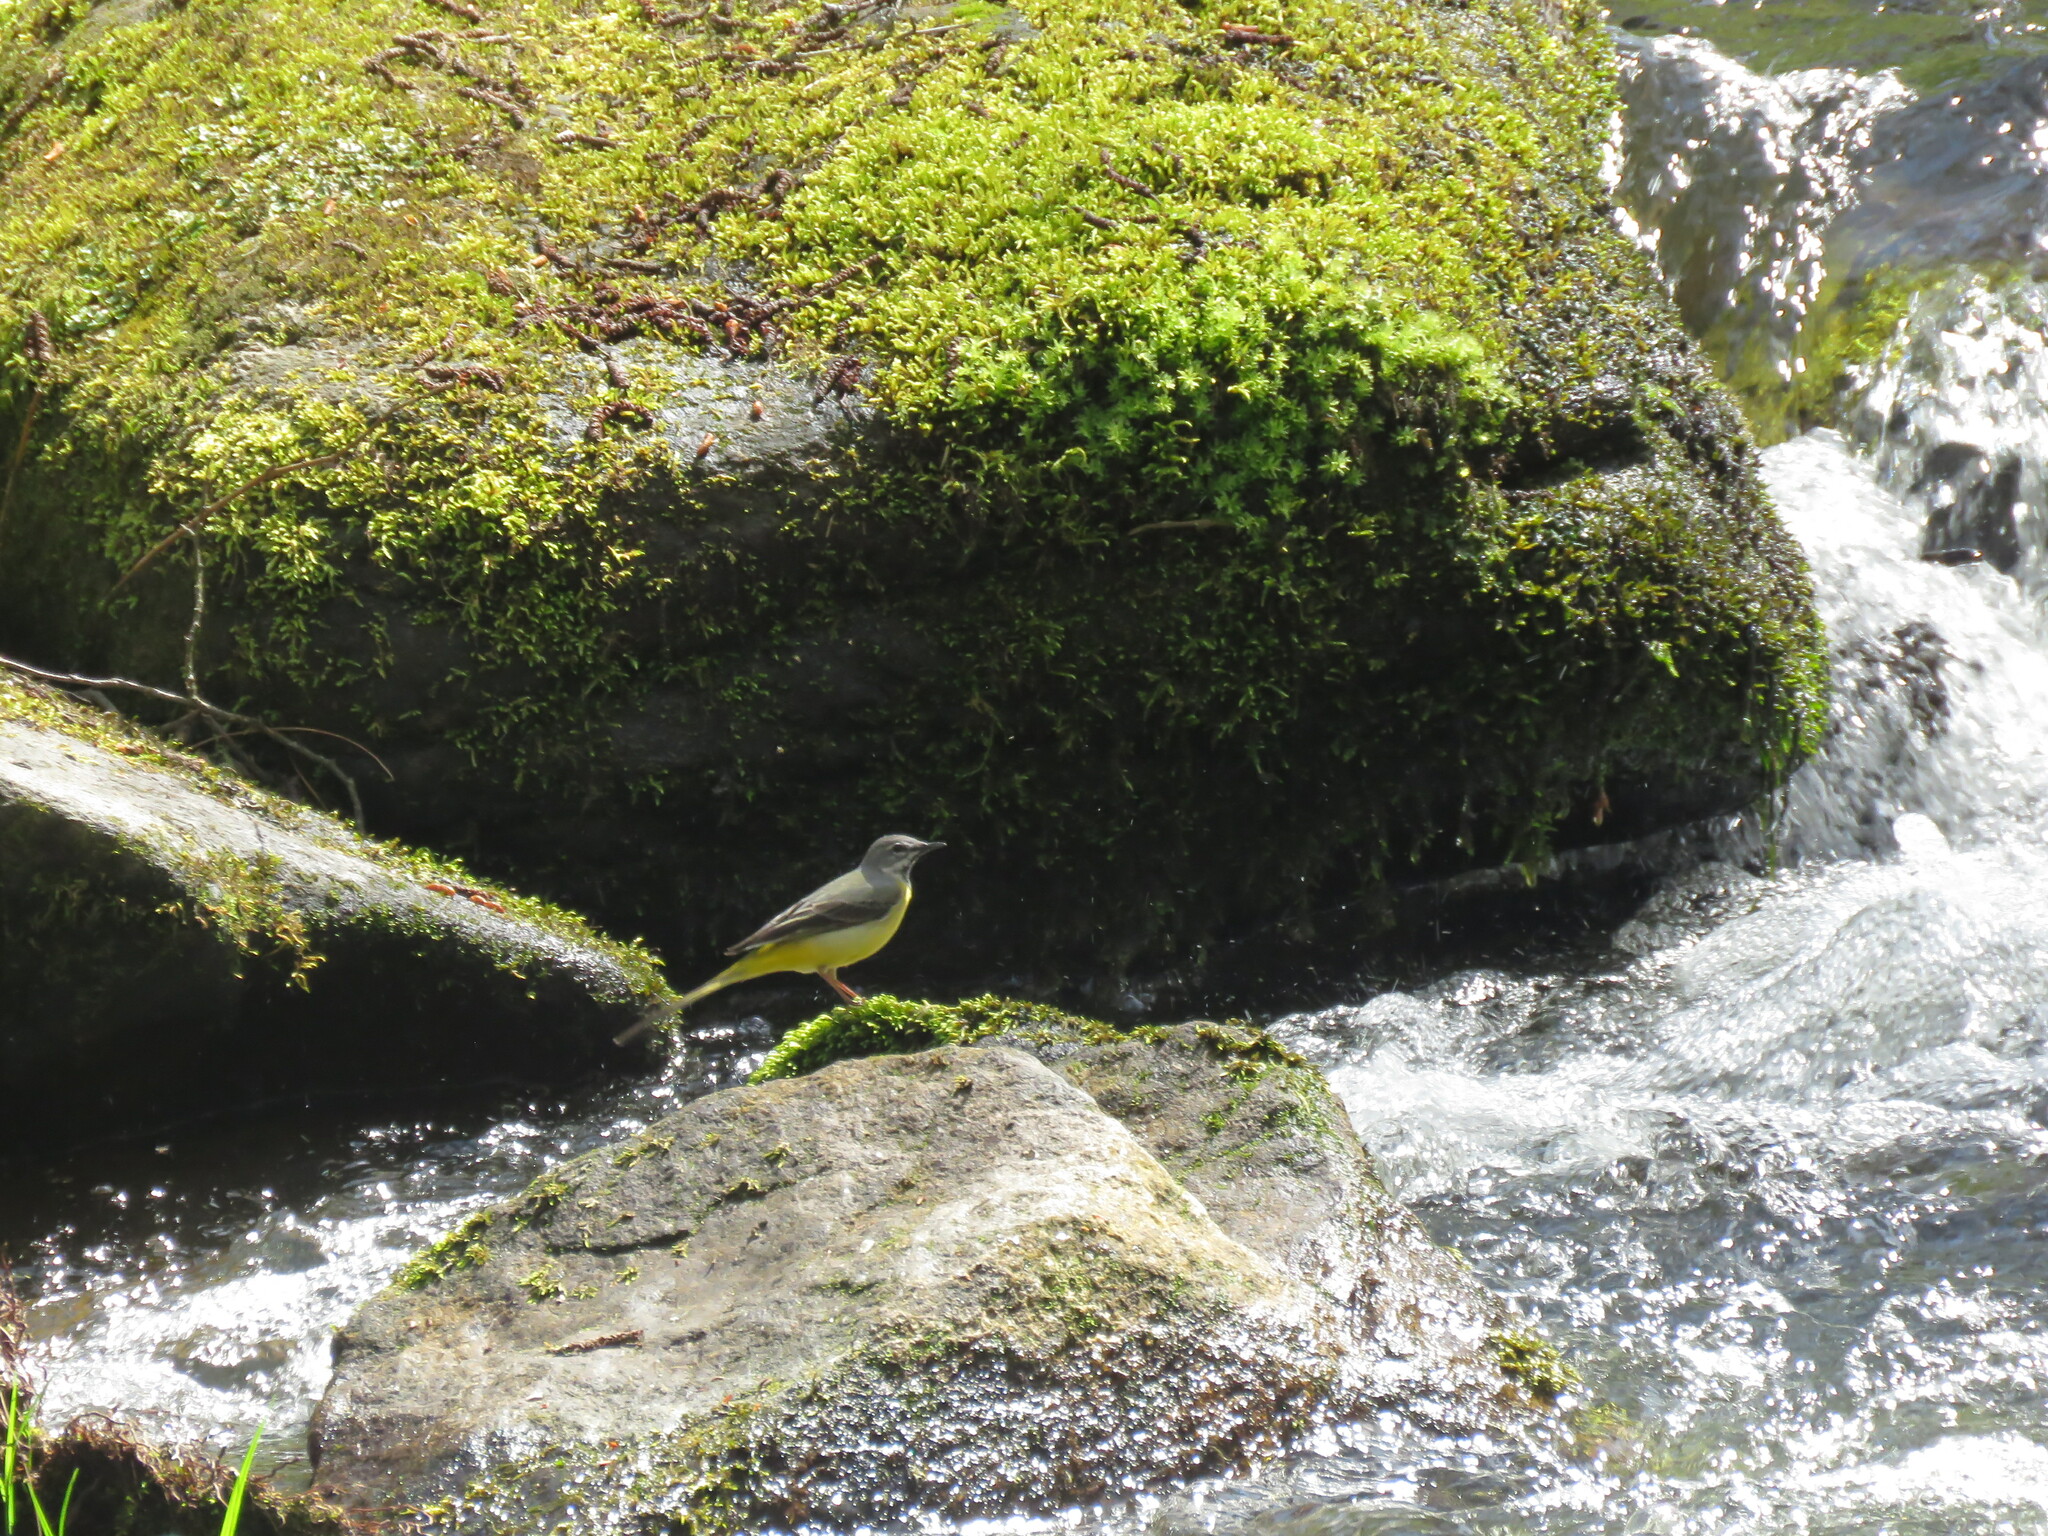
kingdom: Animalia
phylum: Chordata
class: Aves
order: Passeriformes
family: Motacillidae
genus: Motacilla
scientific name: Motacilla cinerea
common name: Grey wagtail
